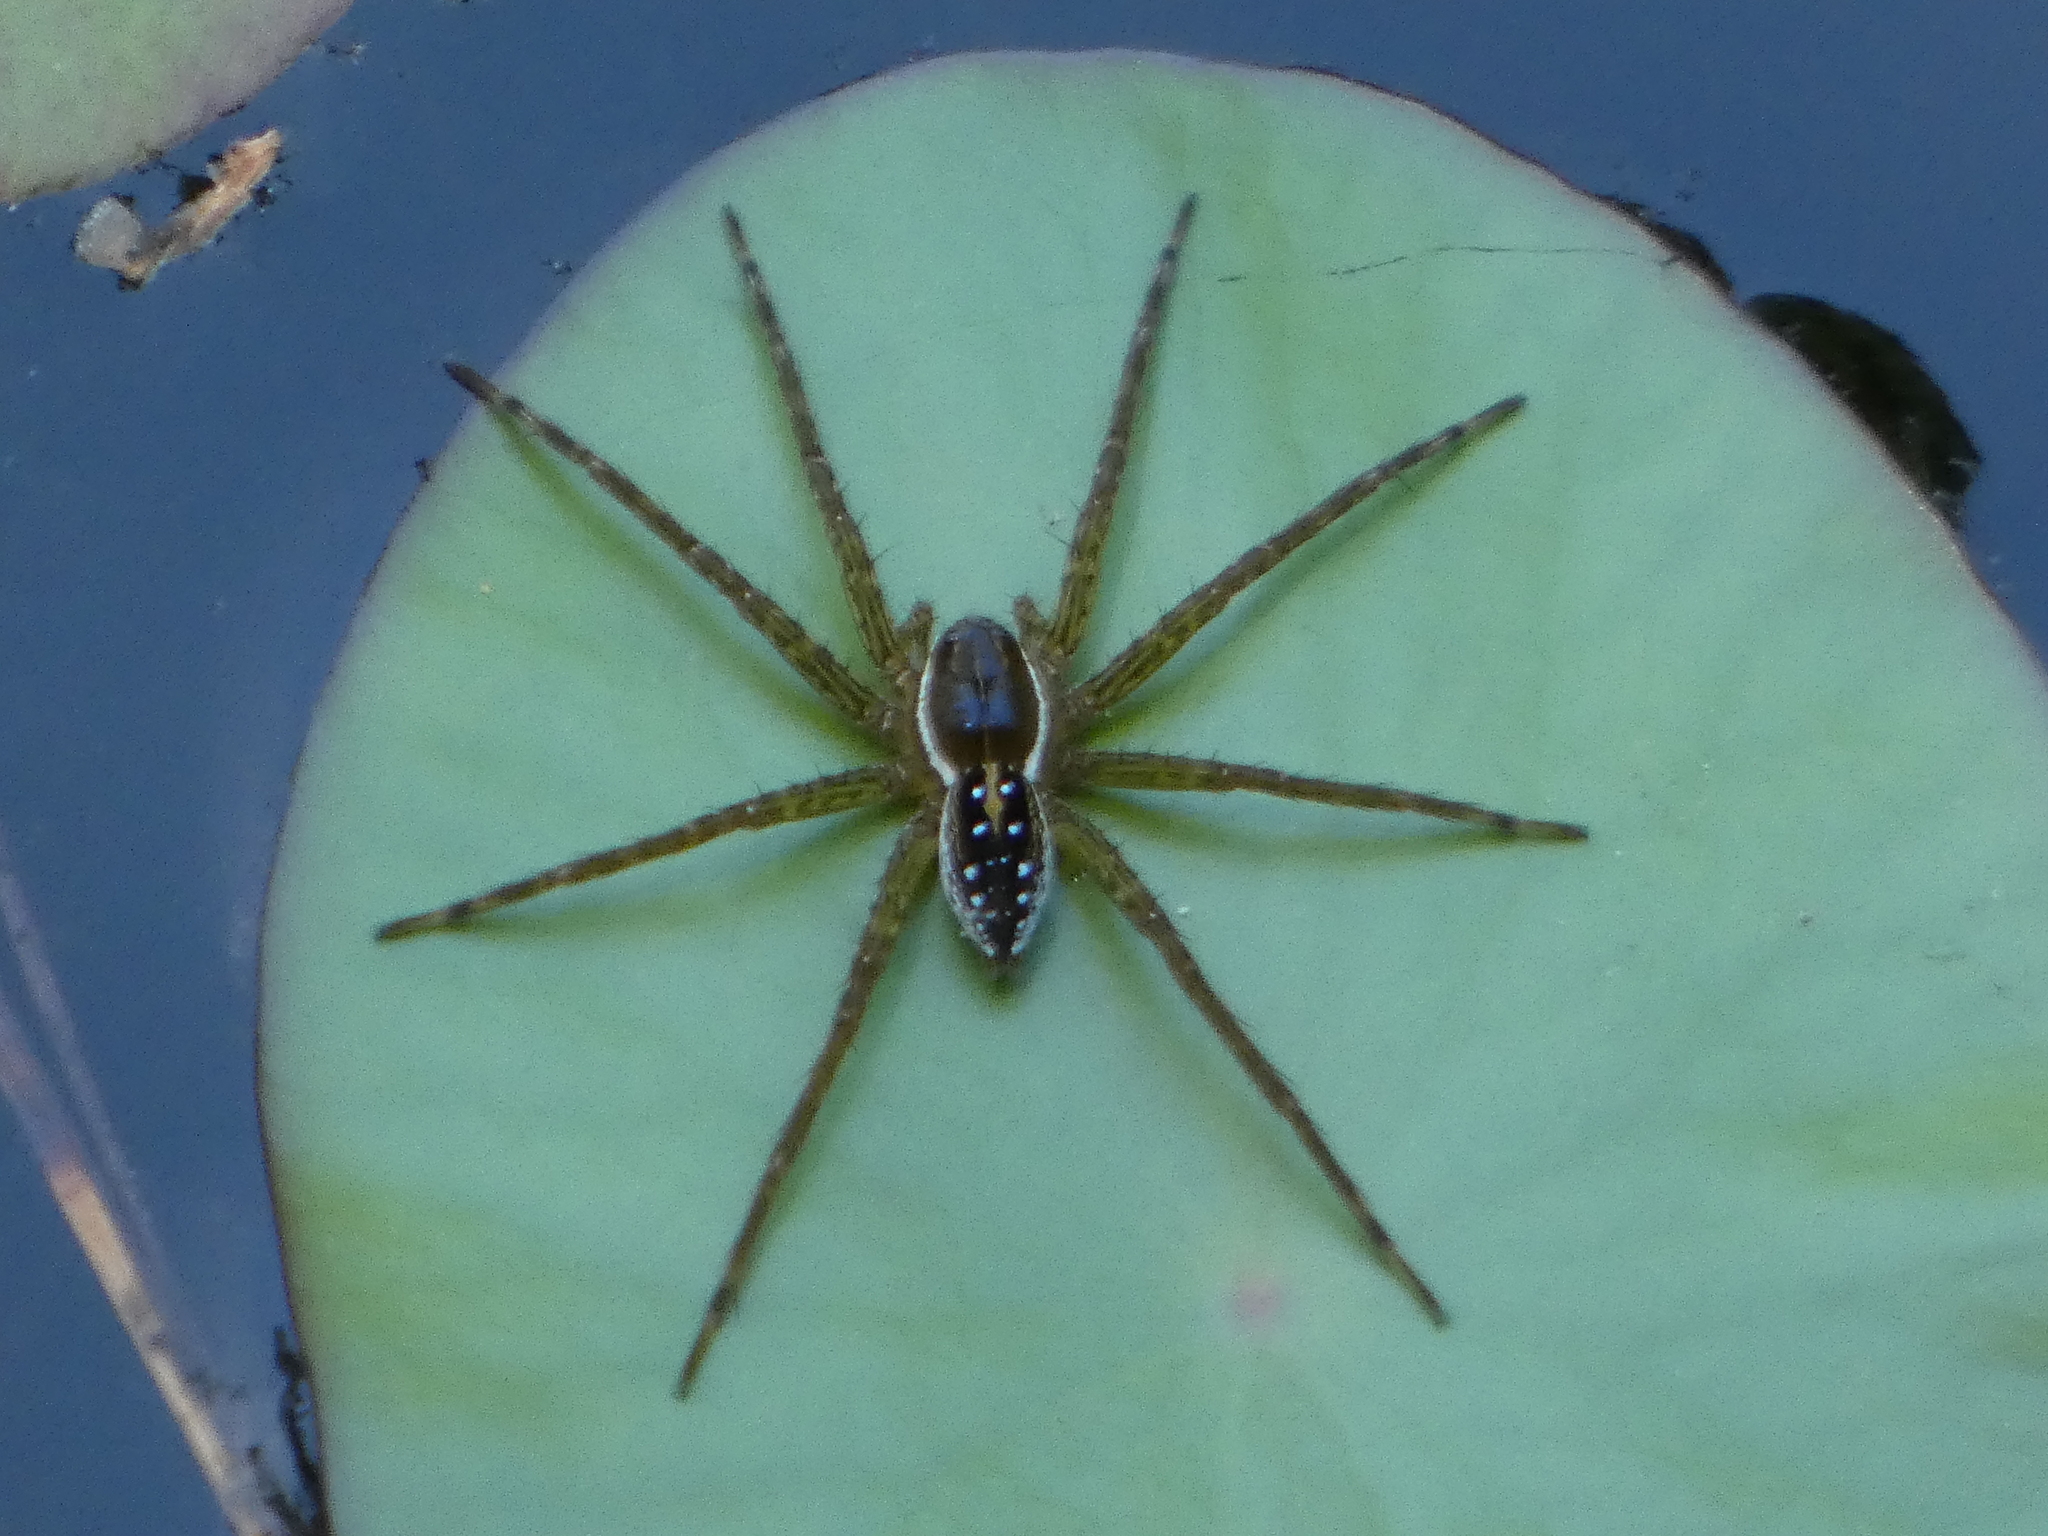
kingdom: Animalia
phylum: Arthropoda
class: Arachnida
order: Araneae
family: Pisauridae
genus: Dolomedes
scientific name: Dolomedes triton
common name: Six-spotted fishing spider
